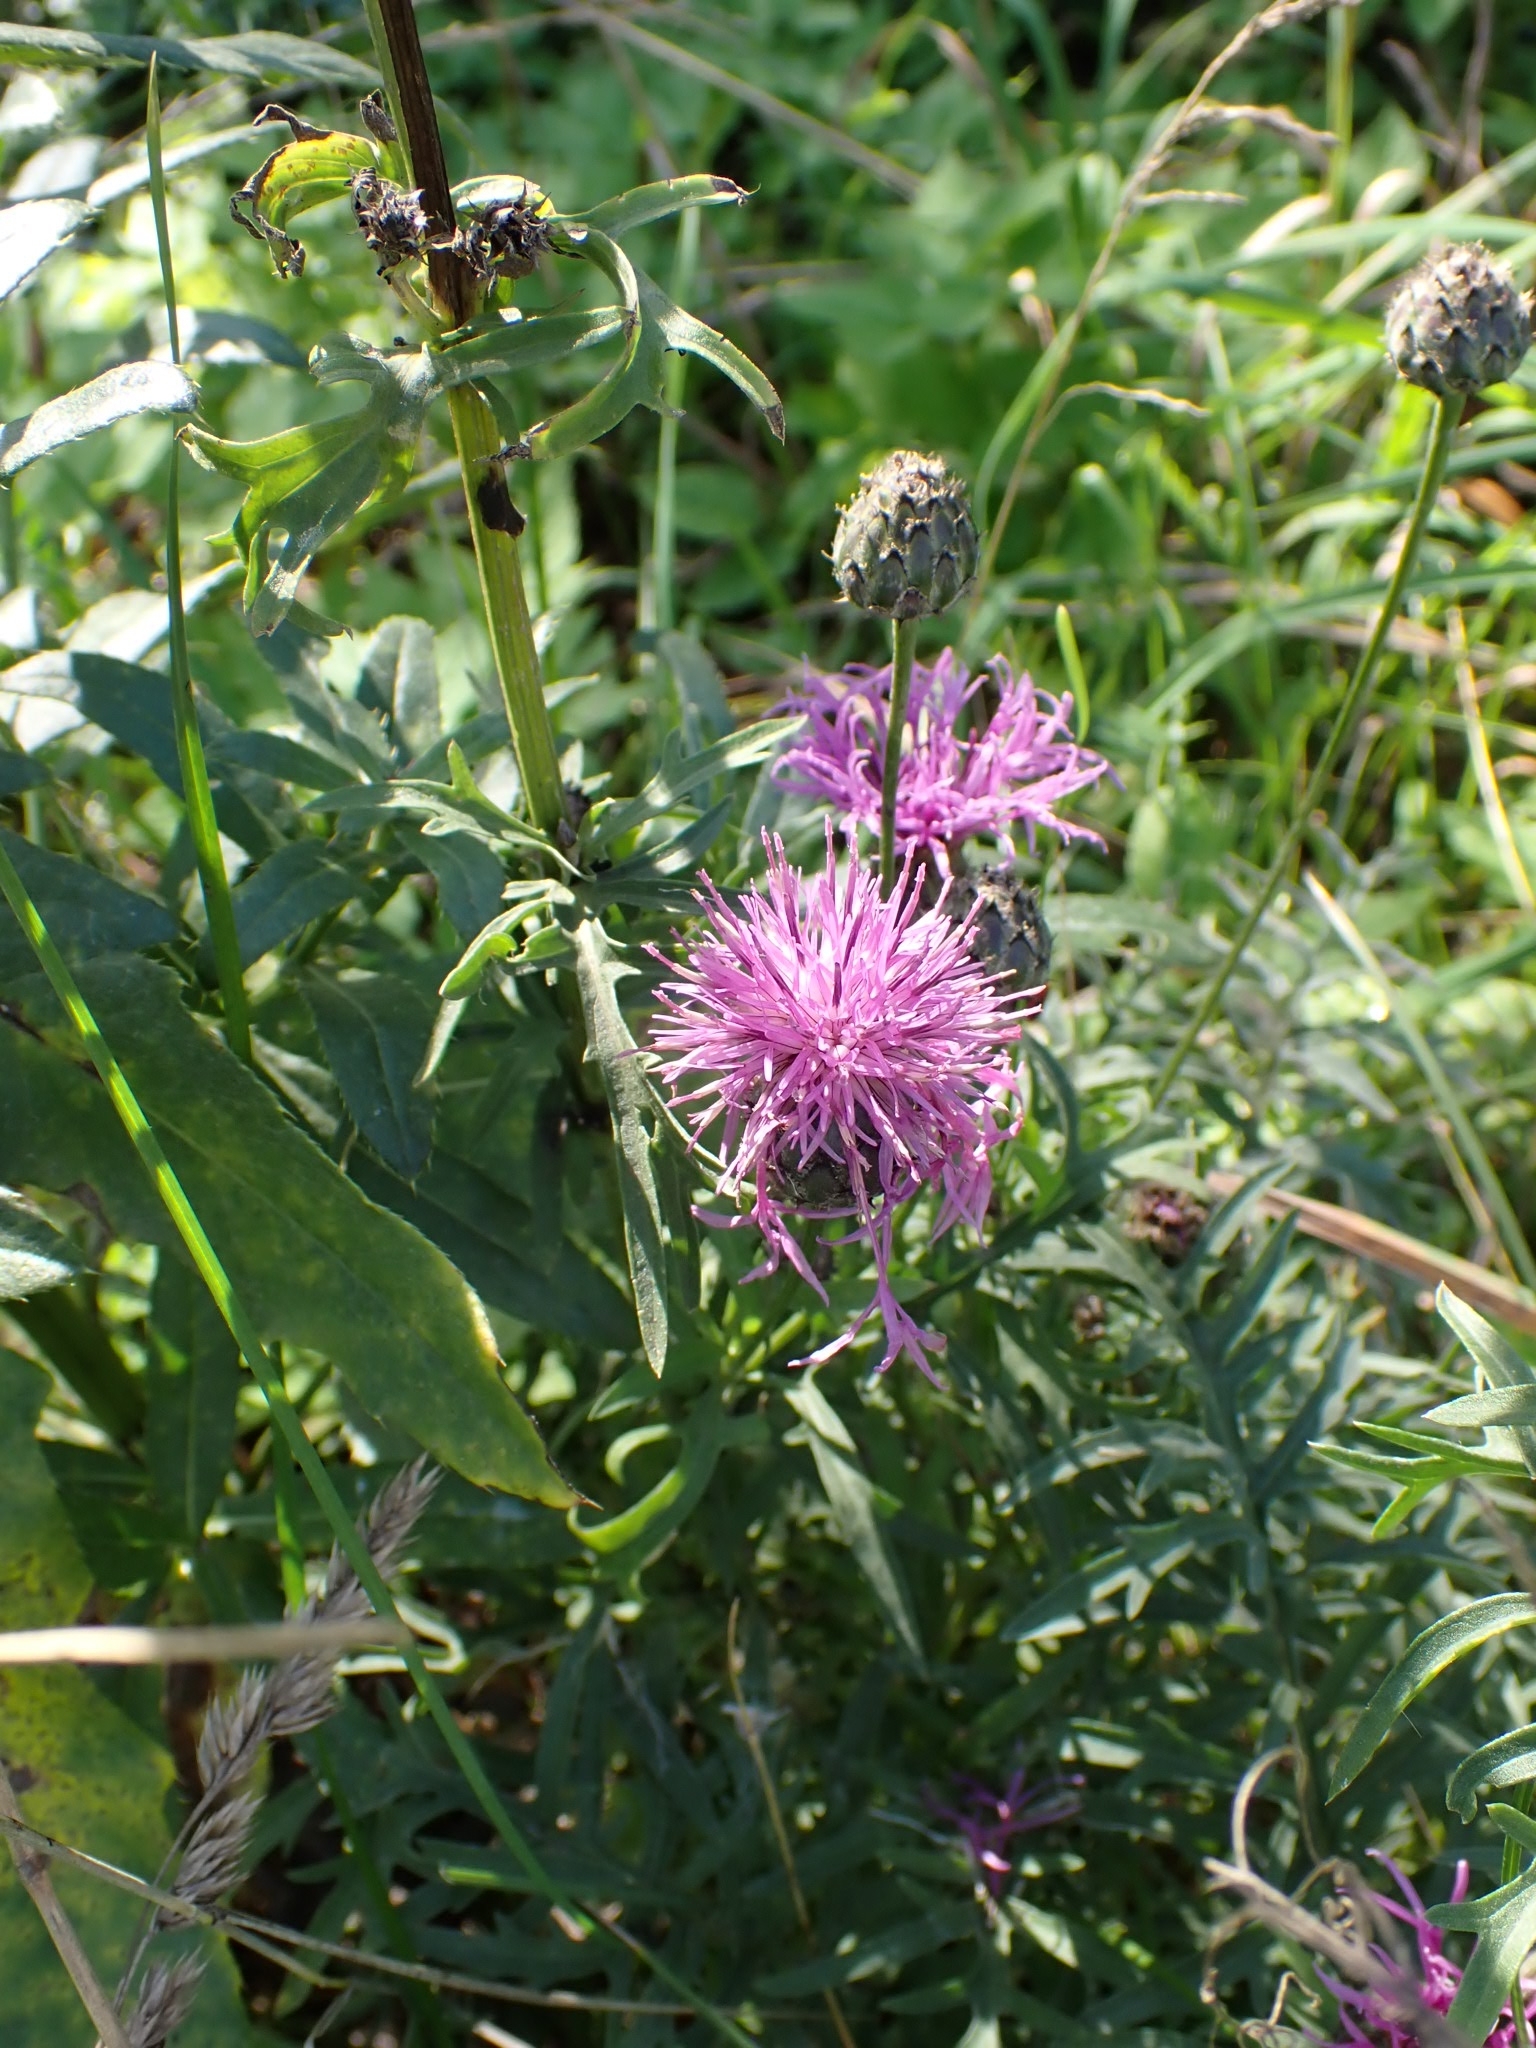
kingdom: Plantae
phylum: Tracheophyta
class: Magnoliopsida
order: Asterales
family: Asteraceae
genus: Centaurea
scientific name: Centaurea scabiosa
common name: Greater knapweed
